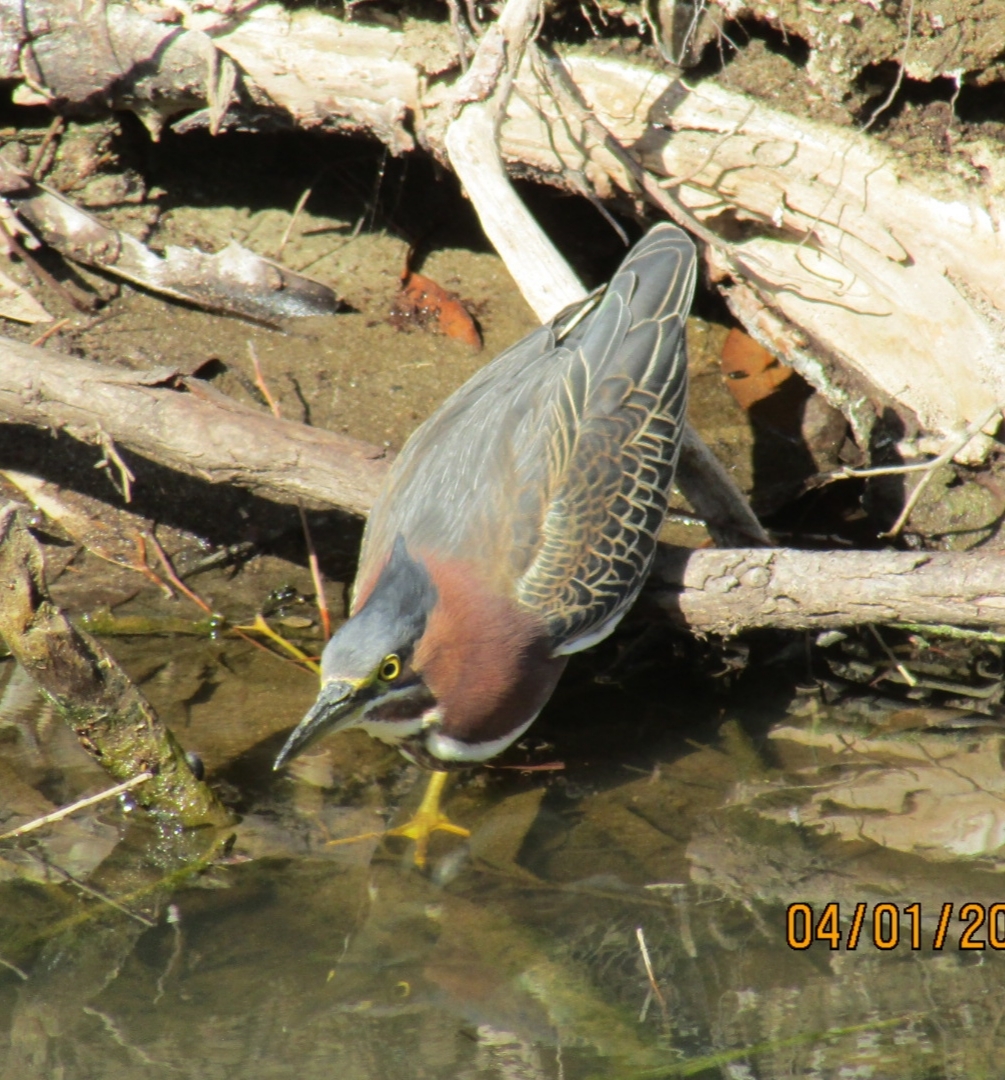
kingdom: Animalia
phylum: Chordata
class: Aves
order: Pelecaniformes
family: Ardeidae
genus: Butorides
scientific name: Butorides virescens
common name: Green heron
